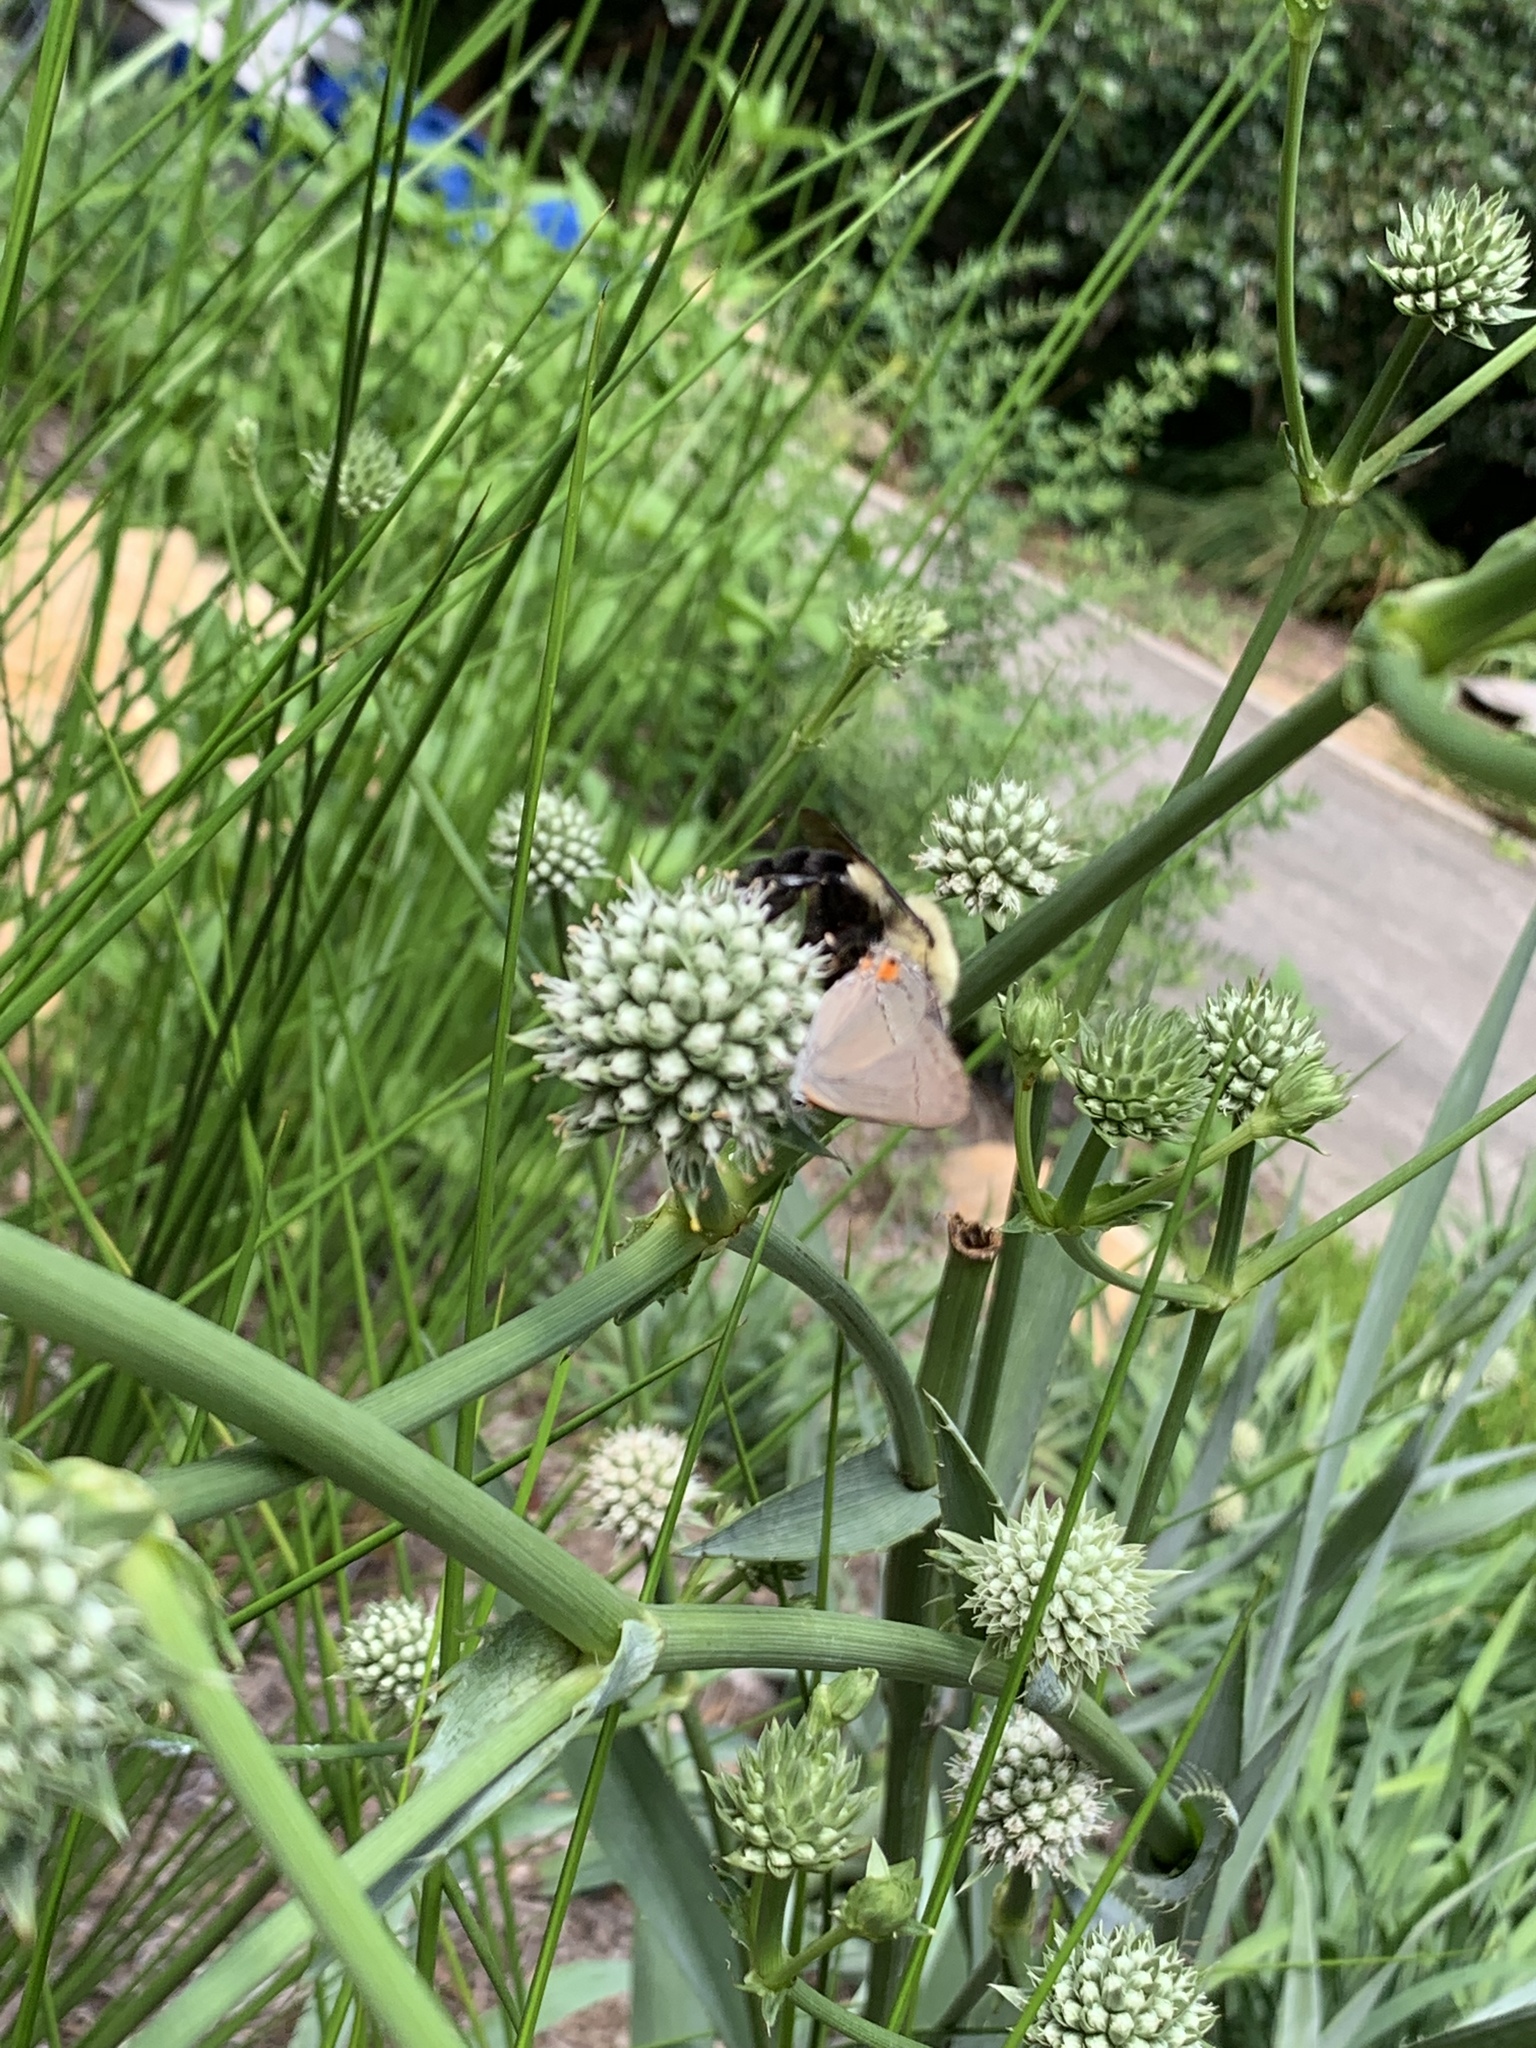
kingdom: Animalia
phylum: Arthropoda
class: Insecta
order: Lepidoptera
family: Lycaenidae
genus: Strymon
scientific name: Strymon melinus
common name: Gray hairstreak
